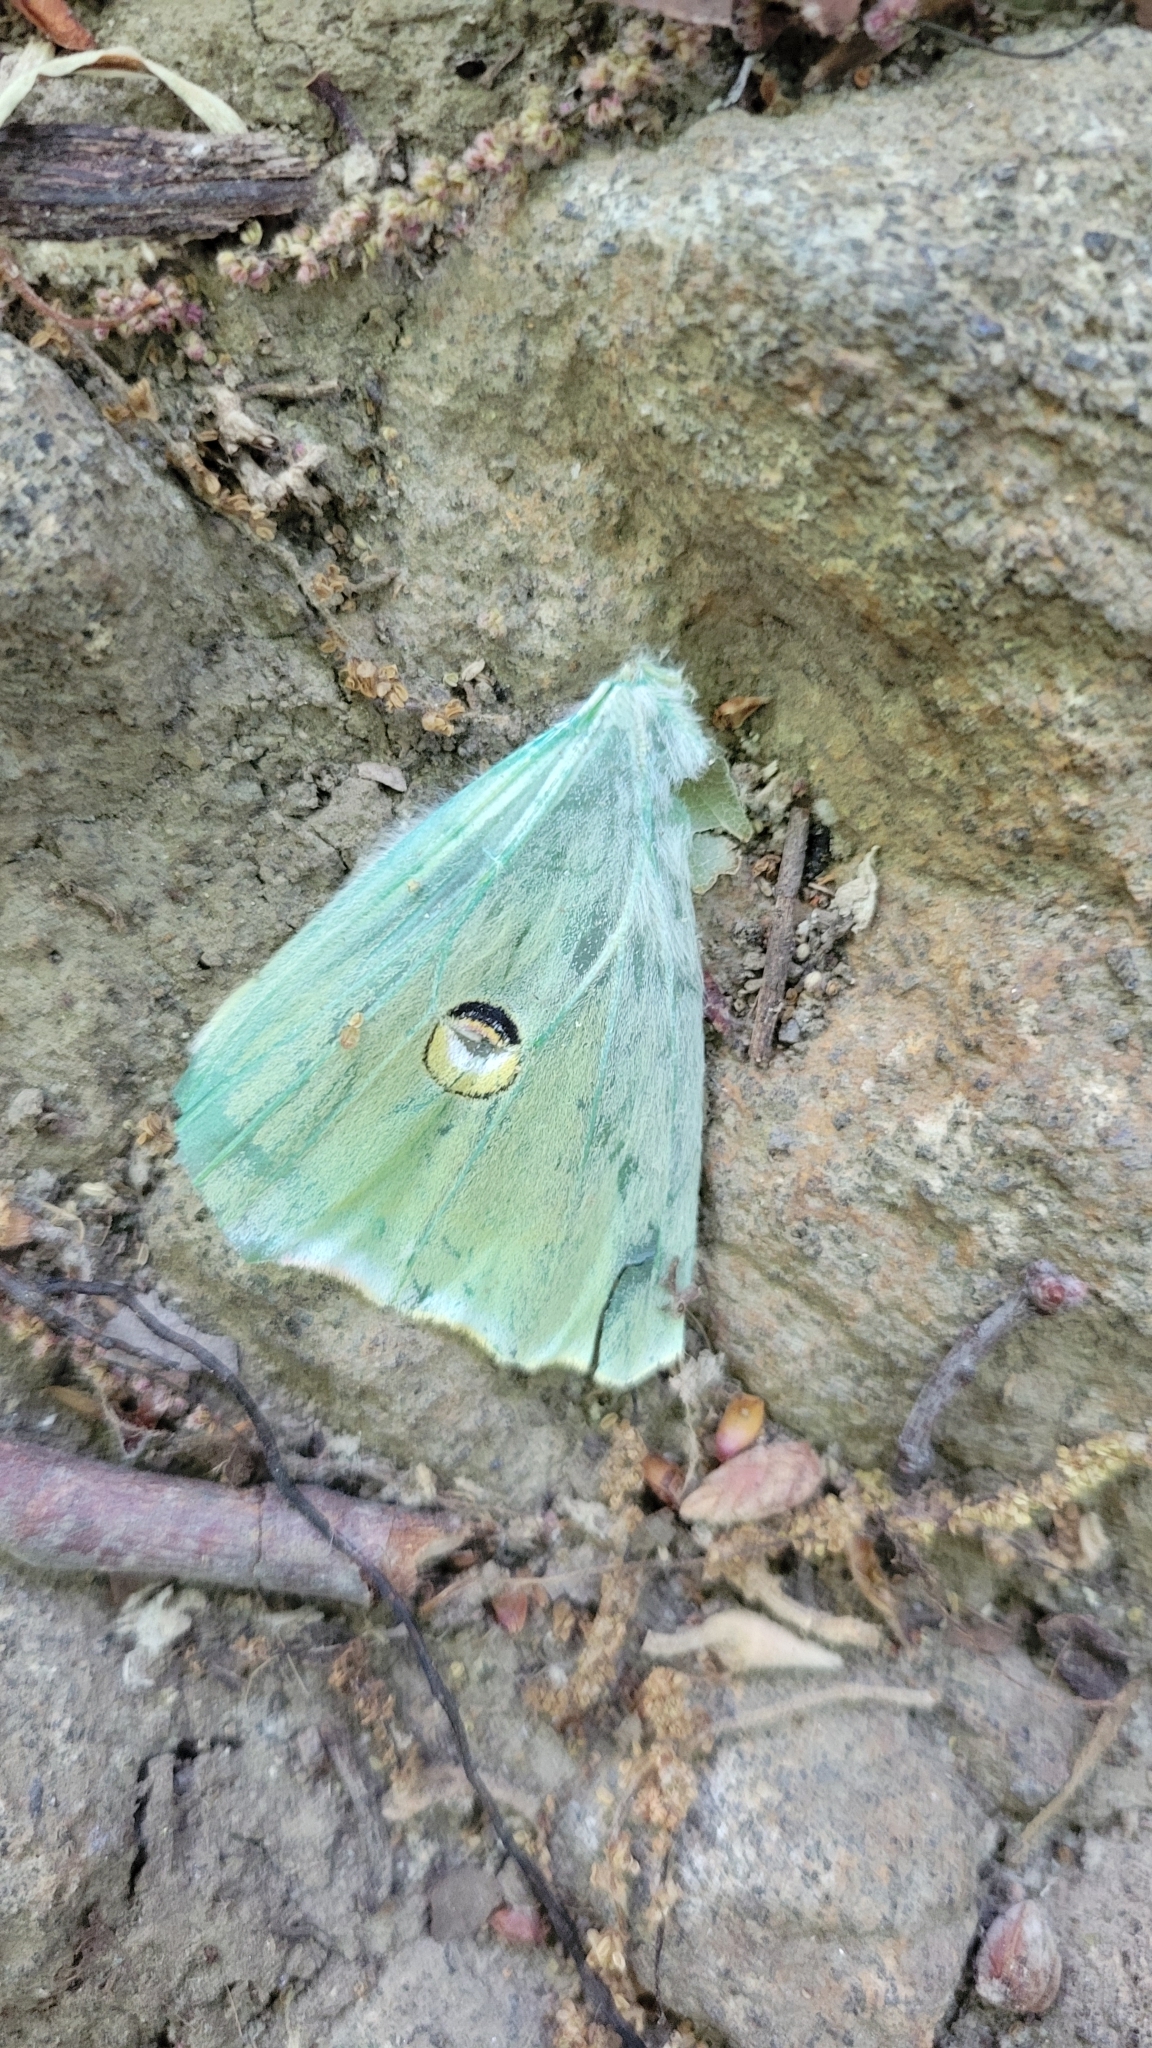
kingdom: Animalia
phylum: Arthropoda
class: Insecta
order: Lepidoptera
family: Saturniidae
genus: Actias
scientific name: Actias luna
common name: Luna moth
